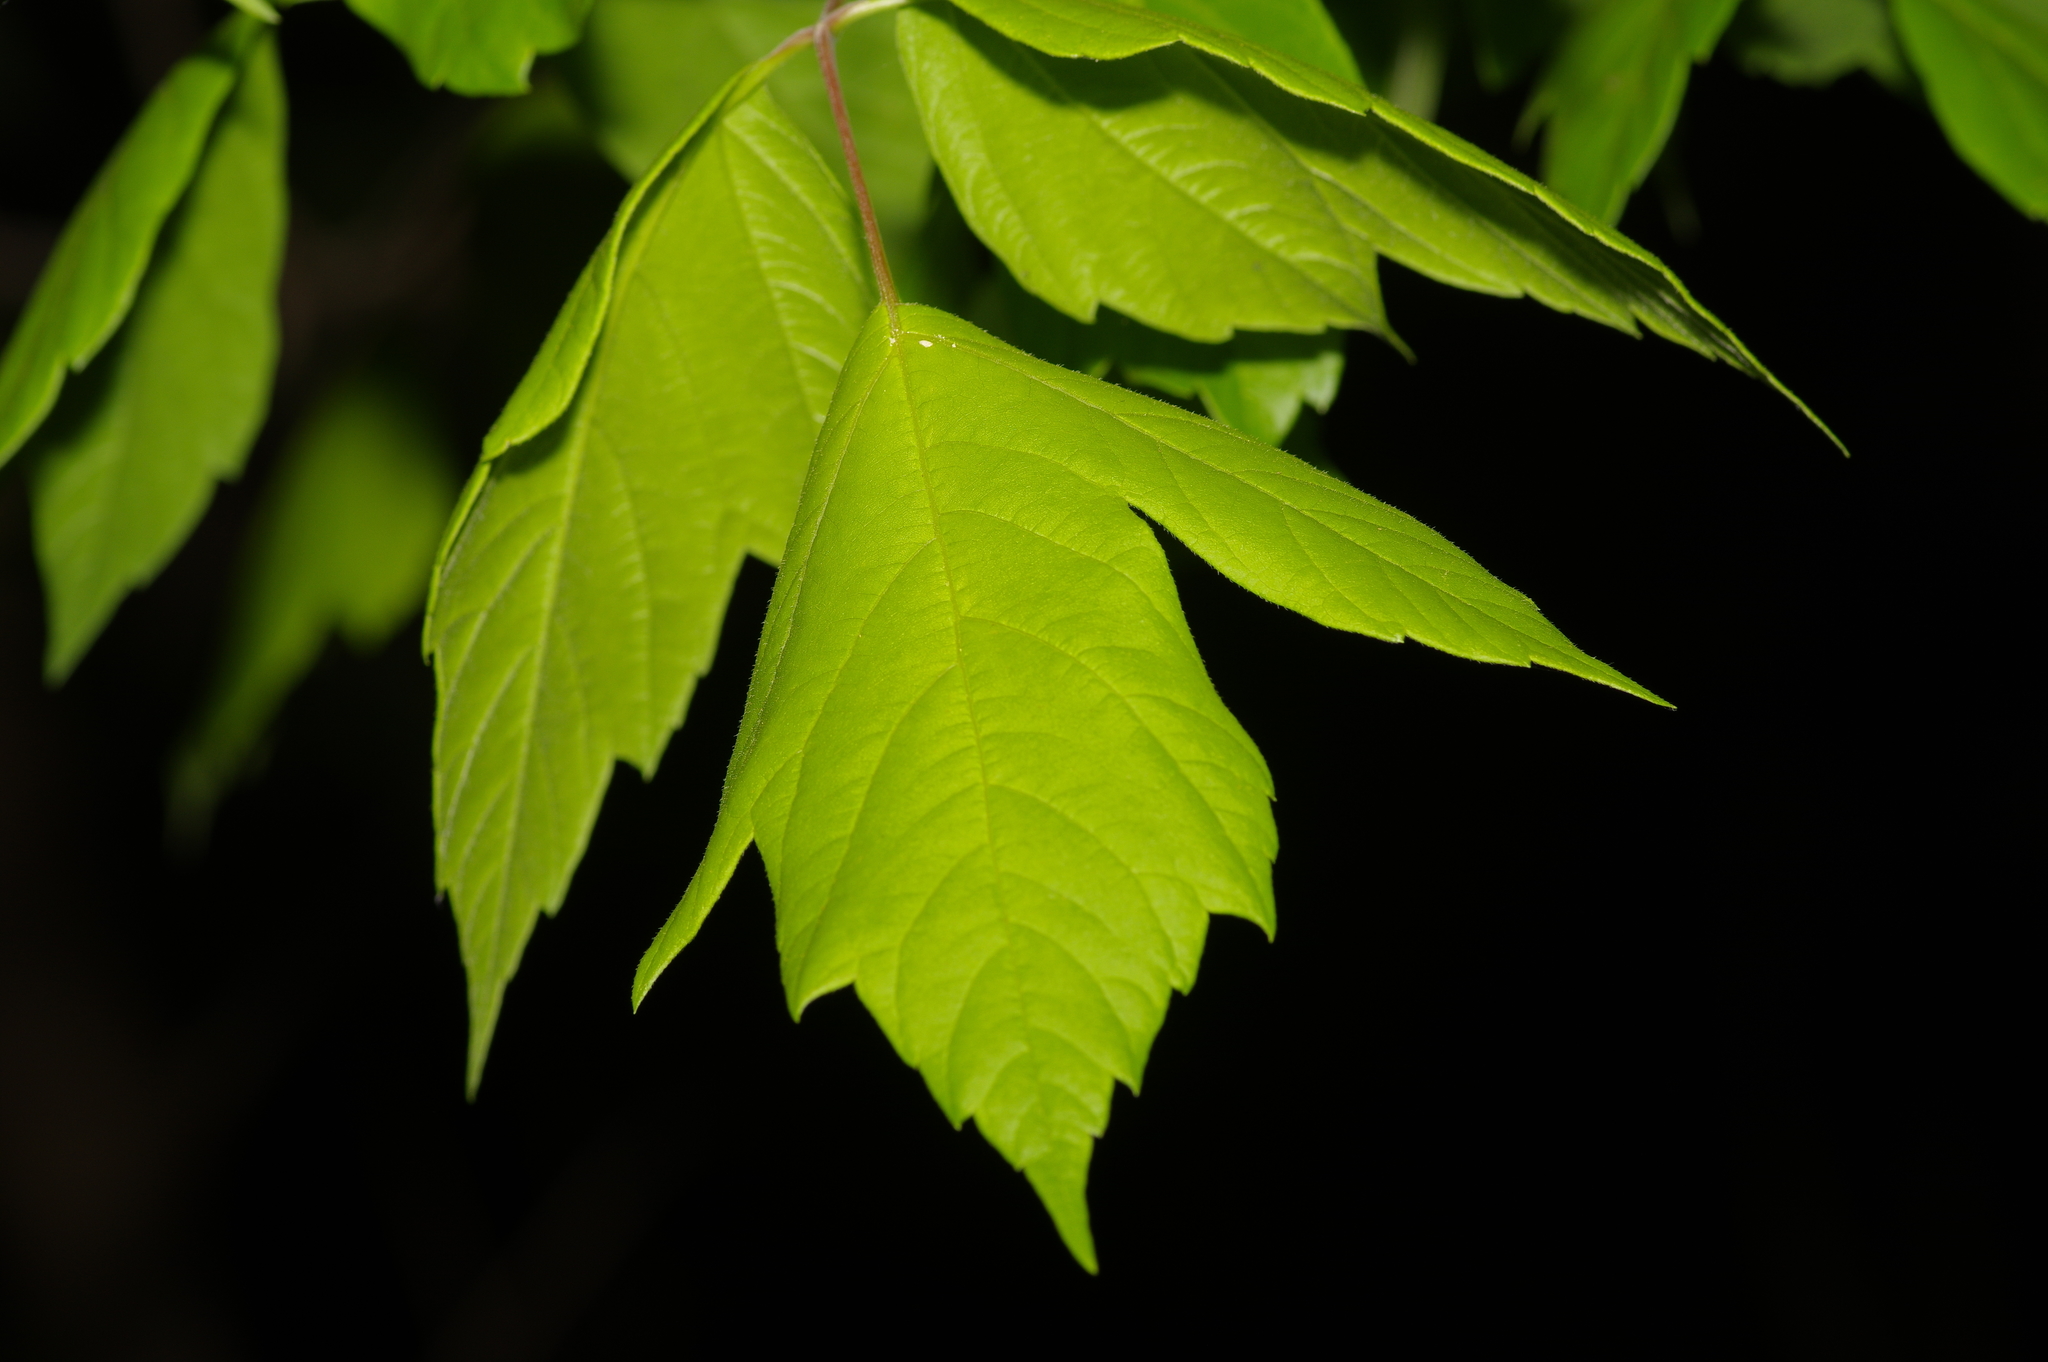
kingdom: Plantae
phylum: Tracheophyta
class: Magnoliopsida
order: Sapindales
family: Sapindaceae
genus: Acer
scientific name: Acer negundo
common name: Ashleaf maple
